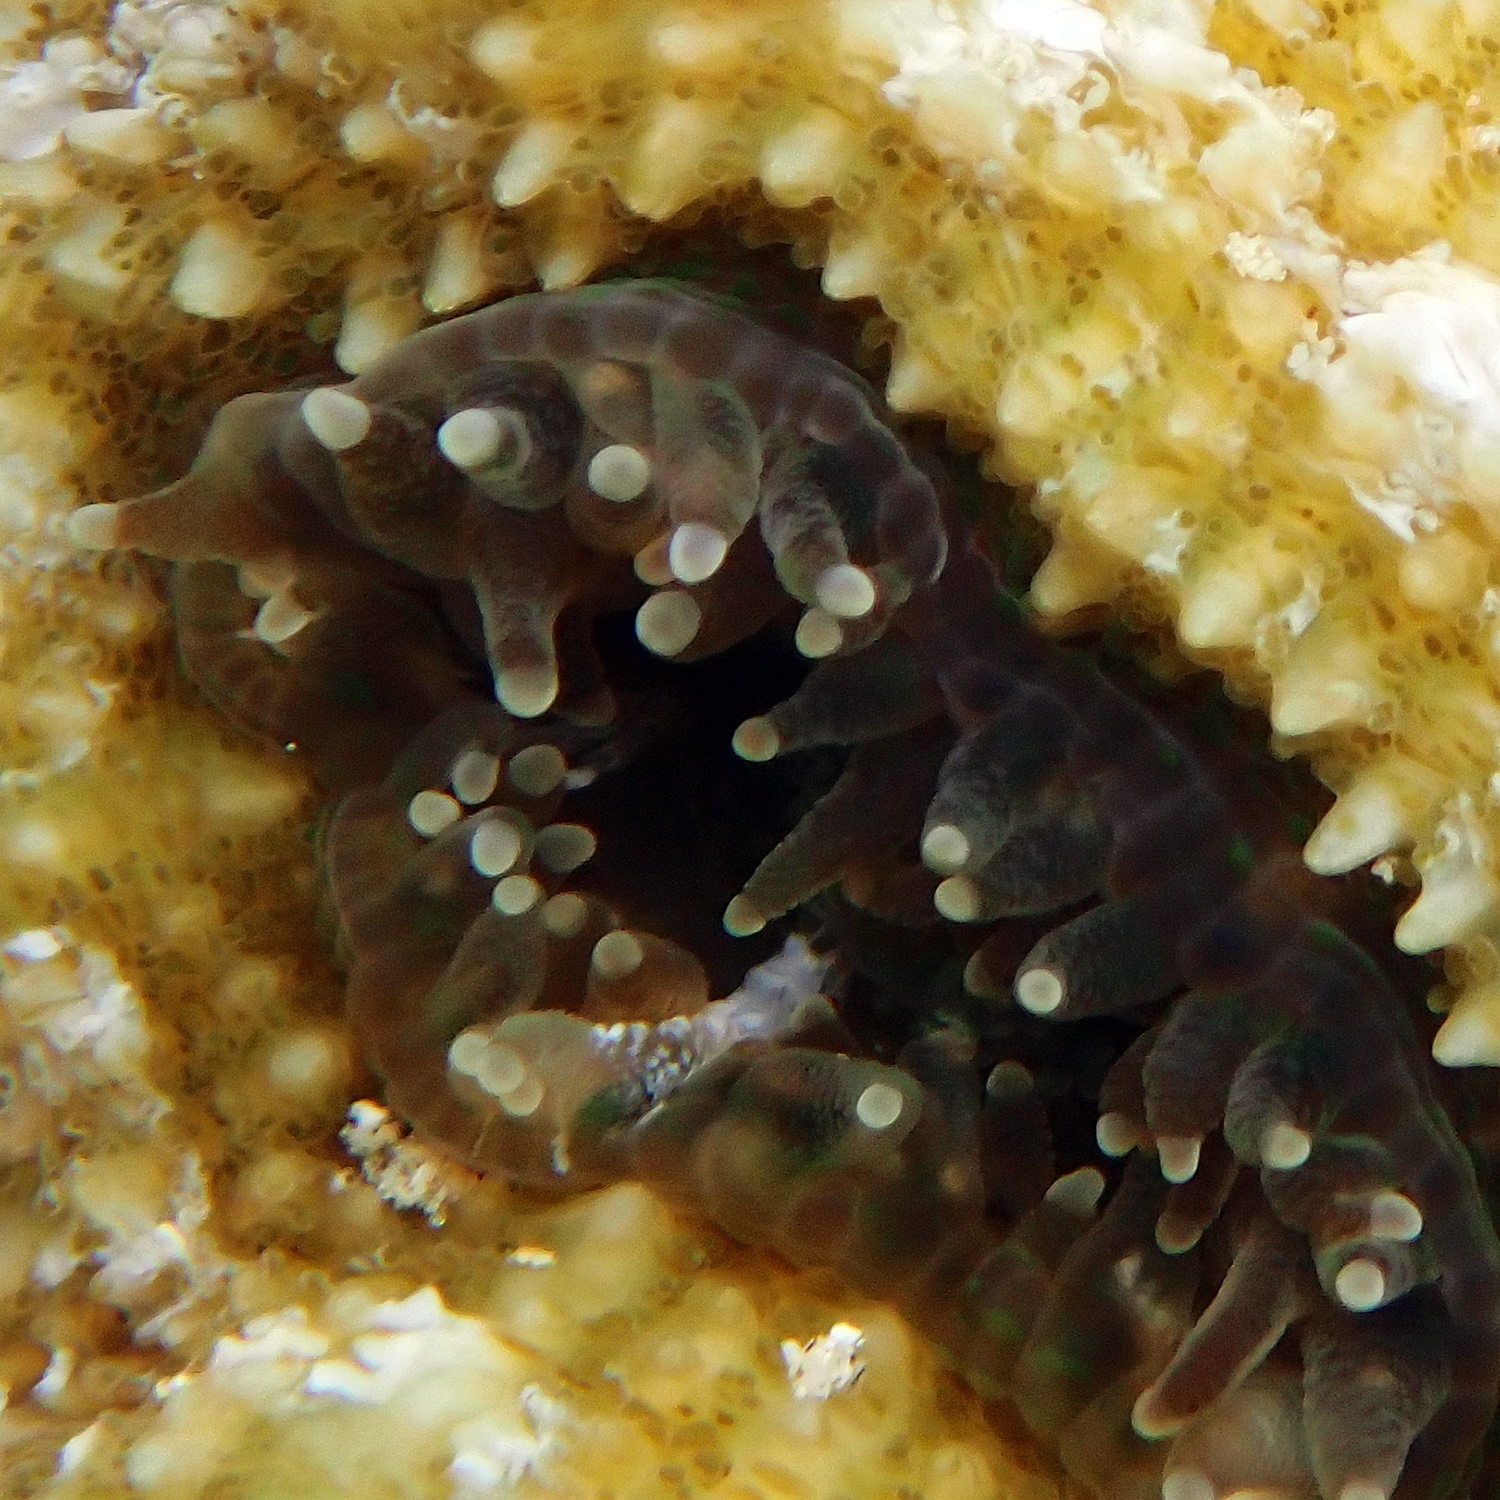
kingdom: Animalia
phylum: Cnidaria
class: Anthozoa
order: Scleractinia
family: Lobophylliidae
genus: Homophyllia
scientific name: Homophyllia bowerbanki
